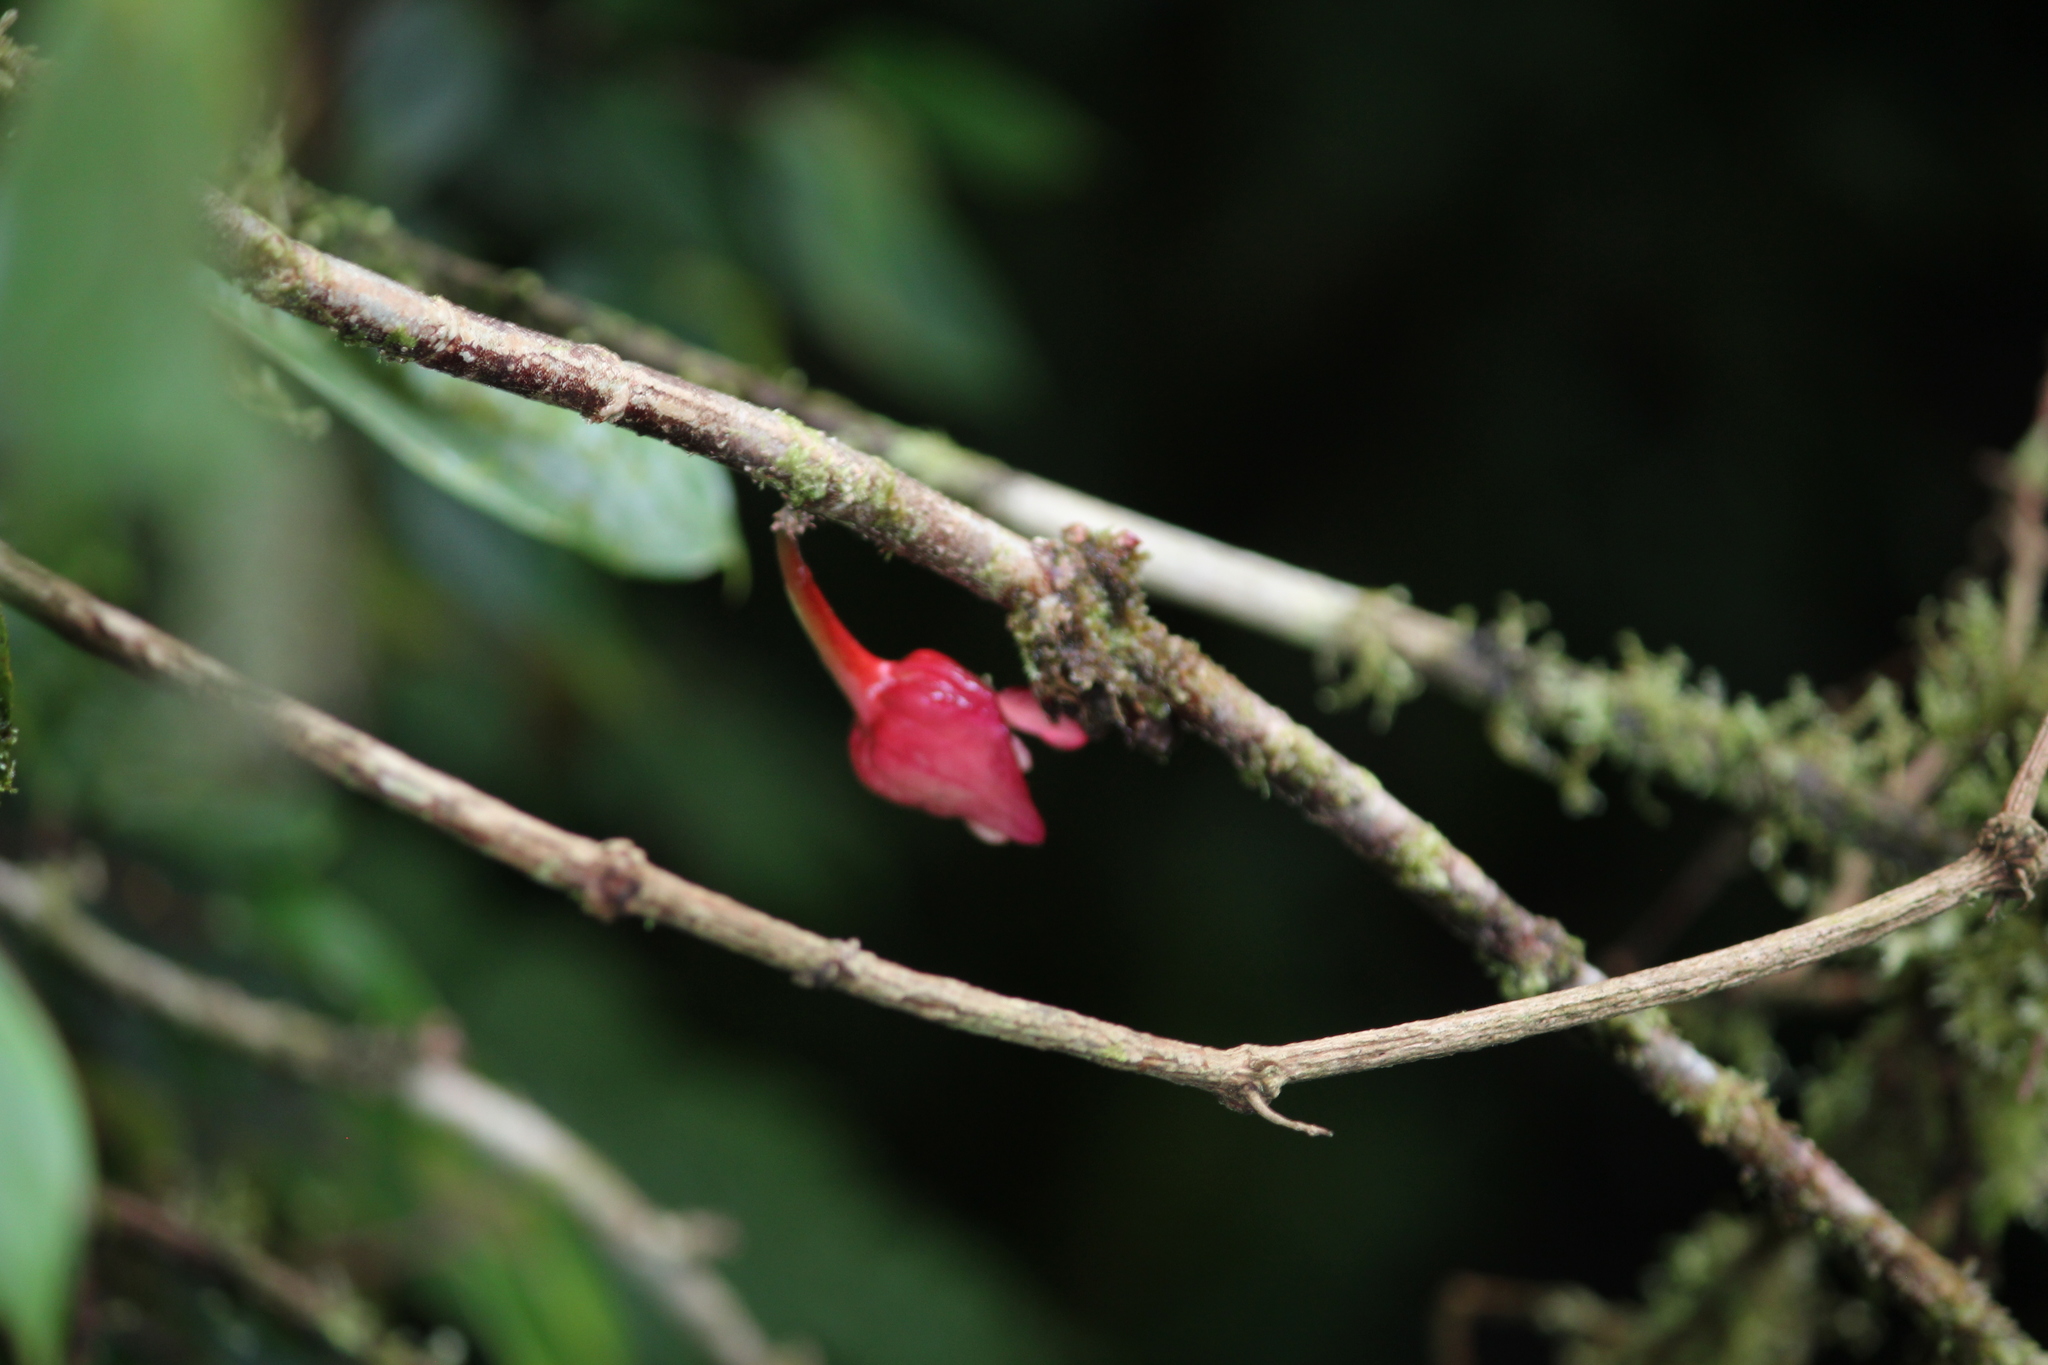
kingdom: Plantae
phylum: Tracheophyta
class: Magnoliopsida
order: Lamiales
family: Gesneriaceae
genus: Drymonia
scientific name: Drymonia conchocalyx
